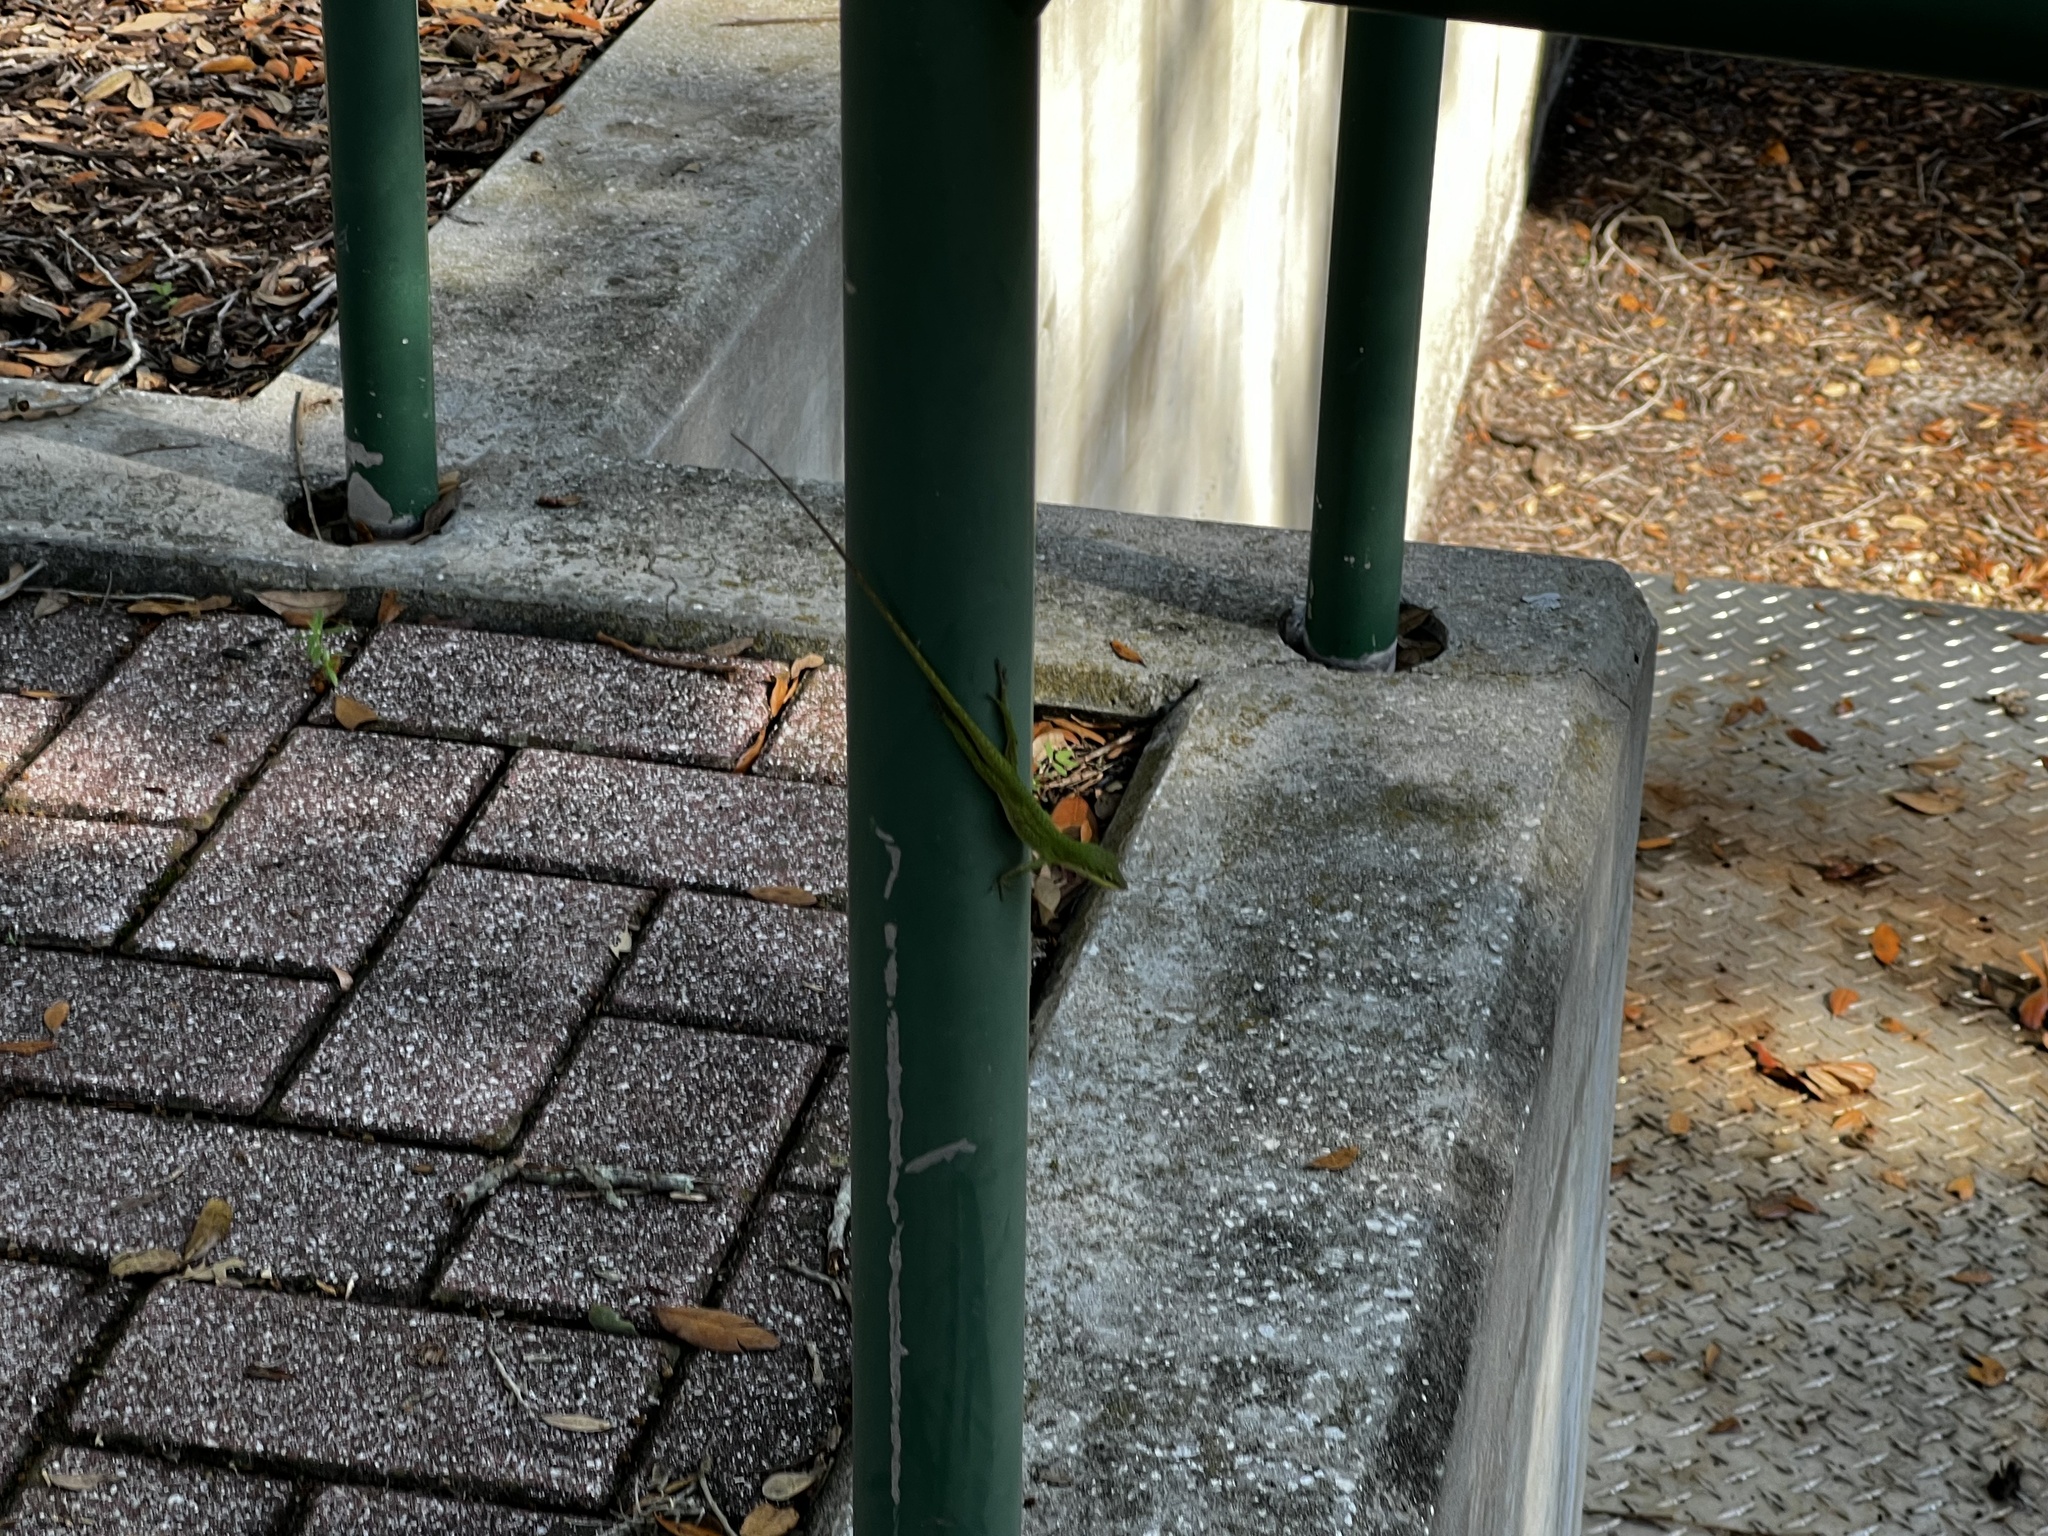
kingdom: Animalia
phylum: Chordata
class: Squamata
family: Dactyloidae
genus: Anolis
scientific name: Anolis carolinensis
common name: Green anole
